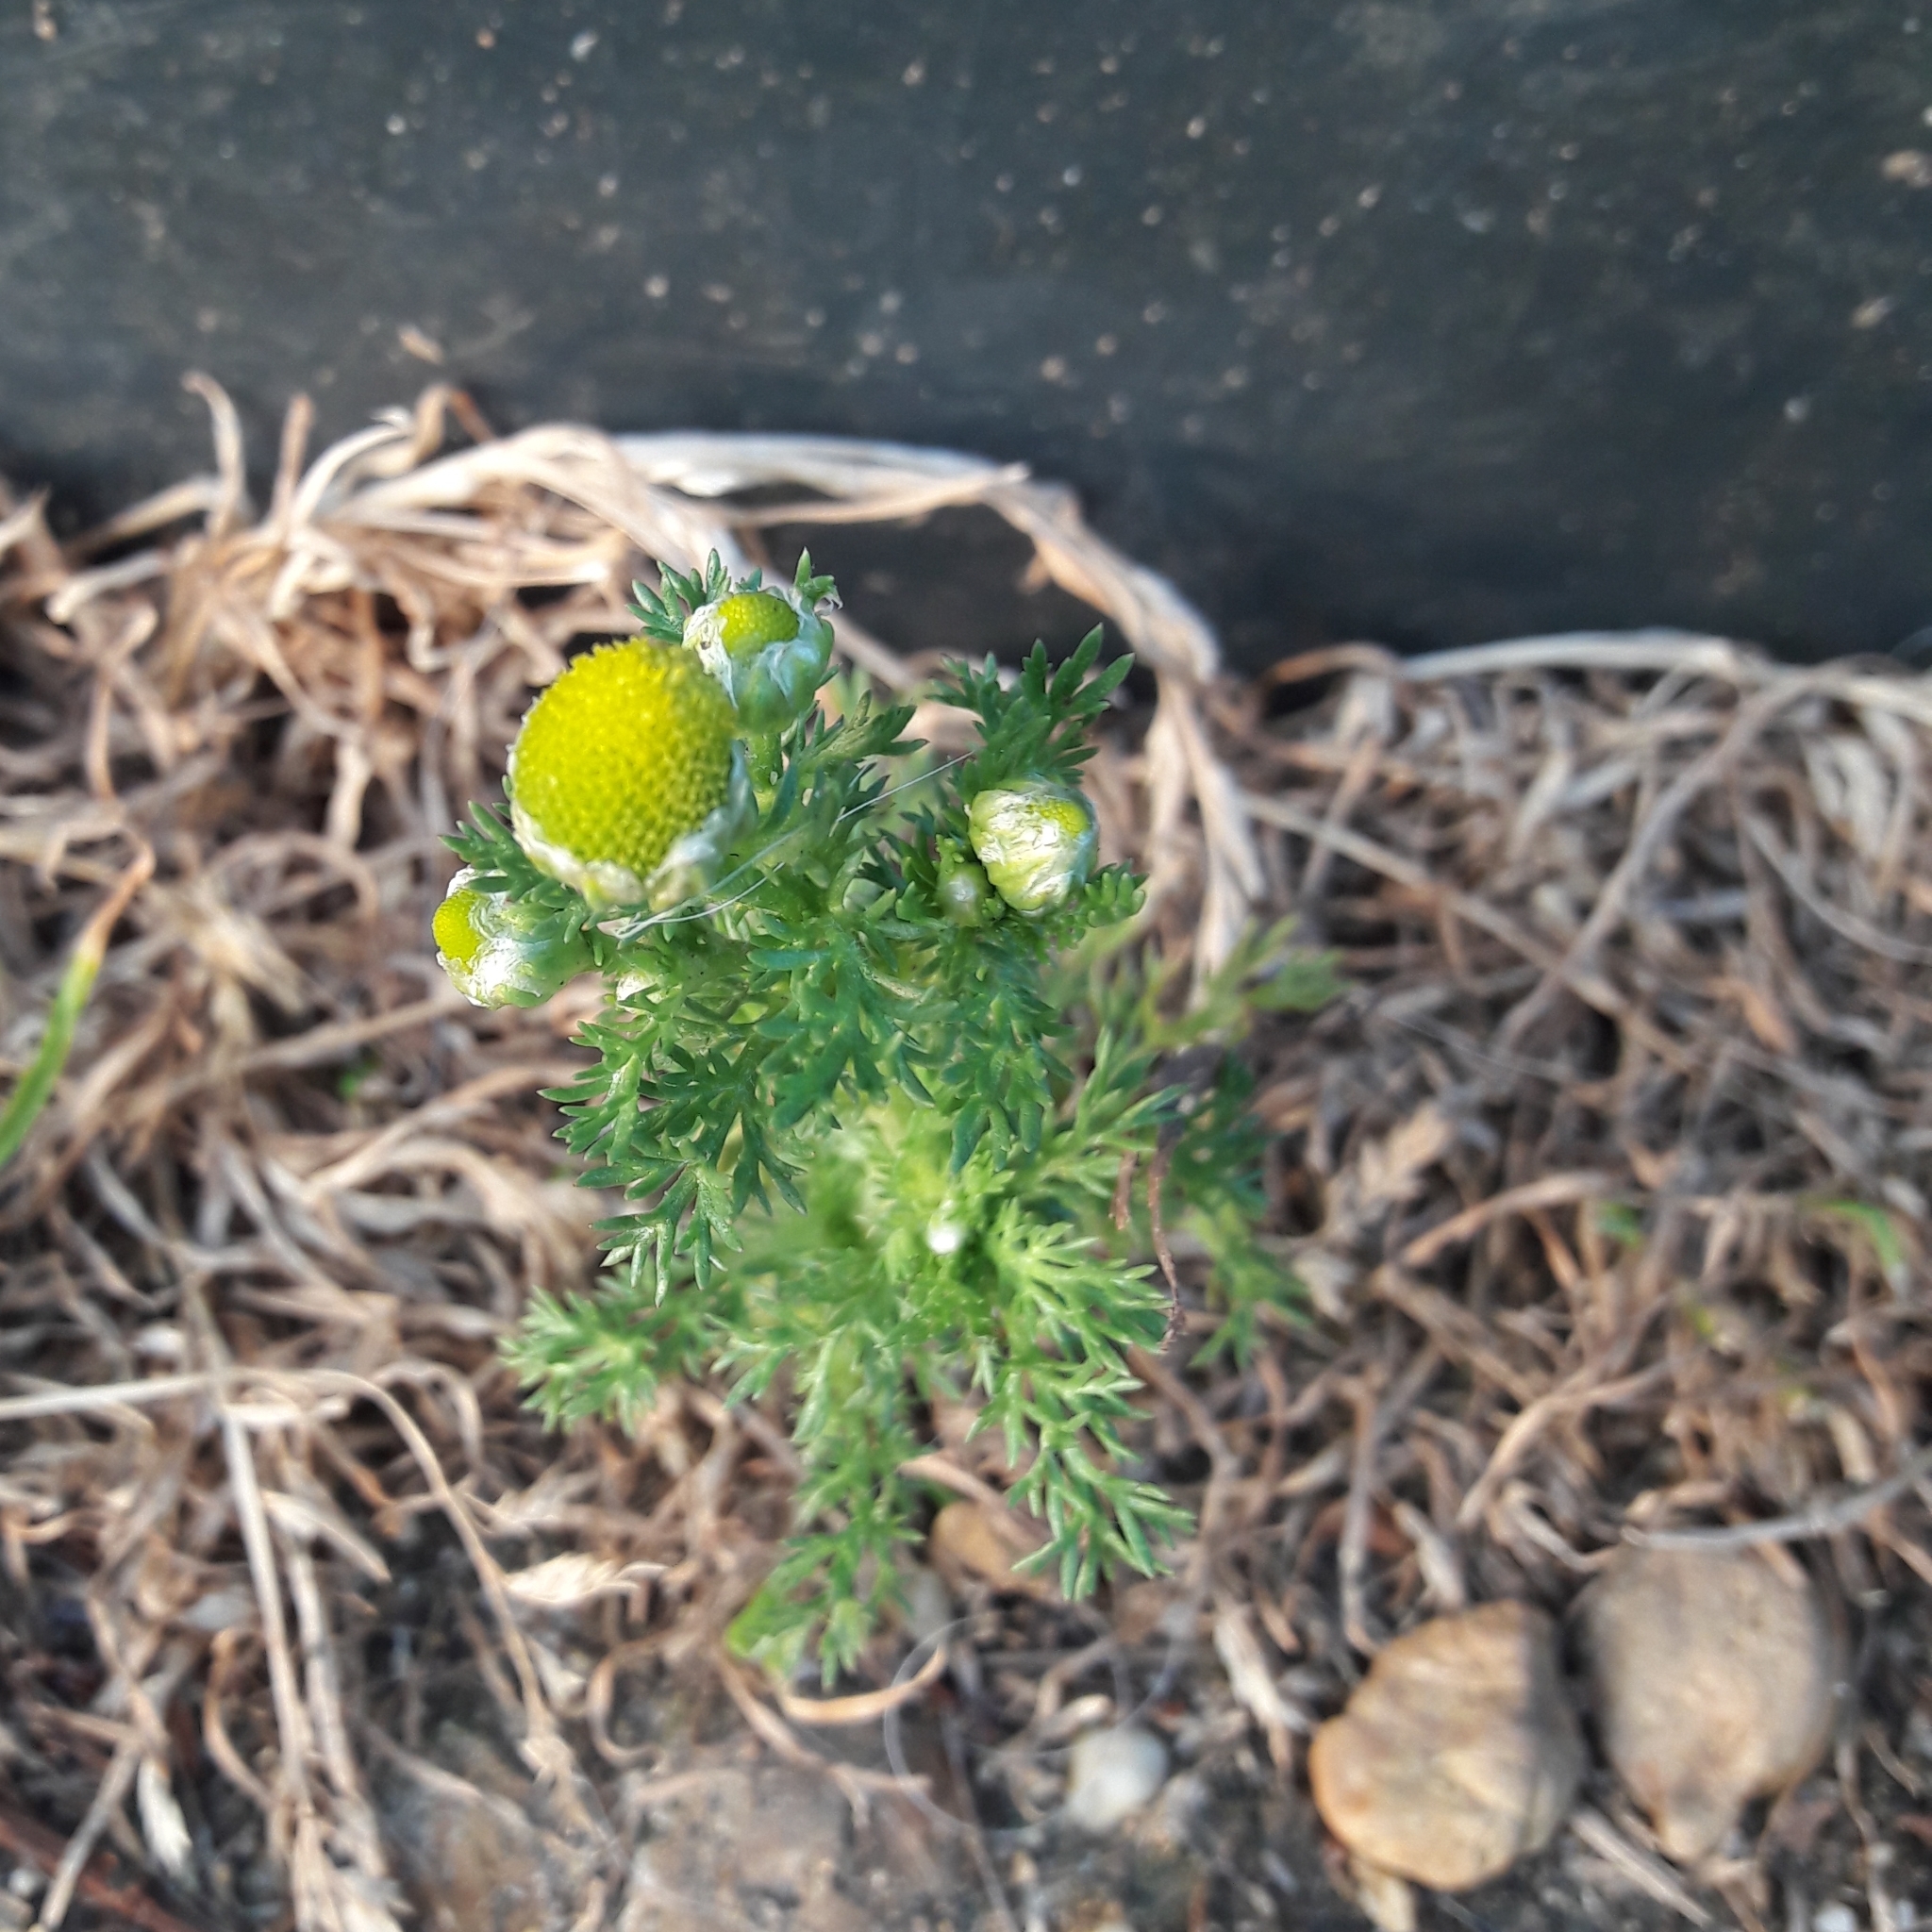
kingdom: Plantae
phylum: Tracheophyta
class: Magnoliopsida
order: Asterales
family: Asteraceae
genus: Matricaria
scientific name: Matricaria discoidea
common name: Disc mayweed
